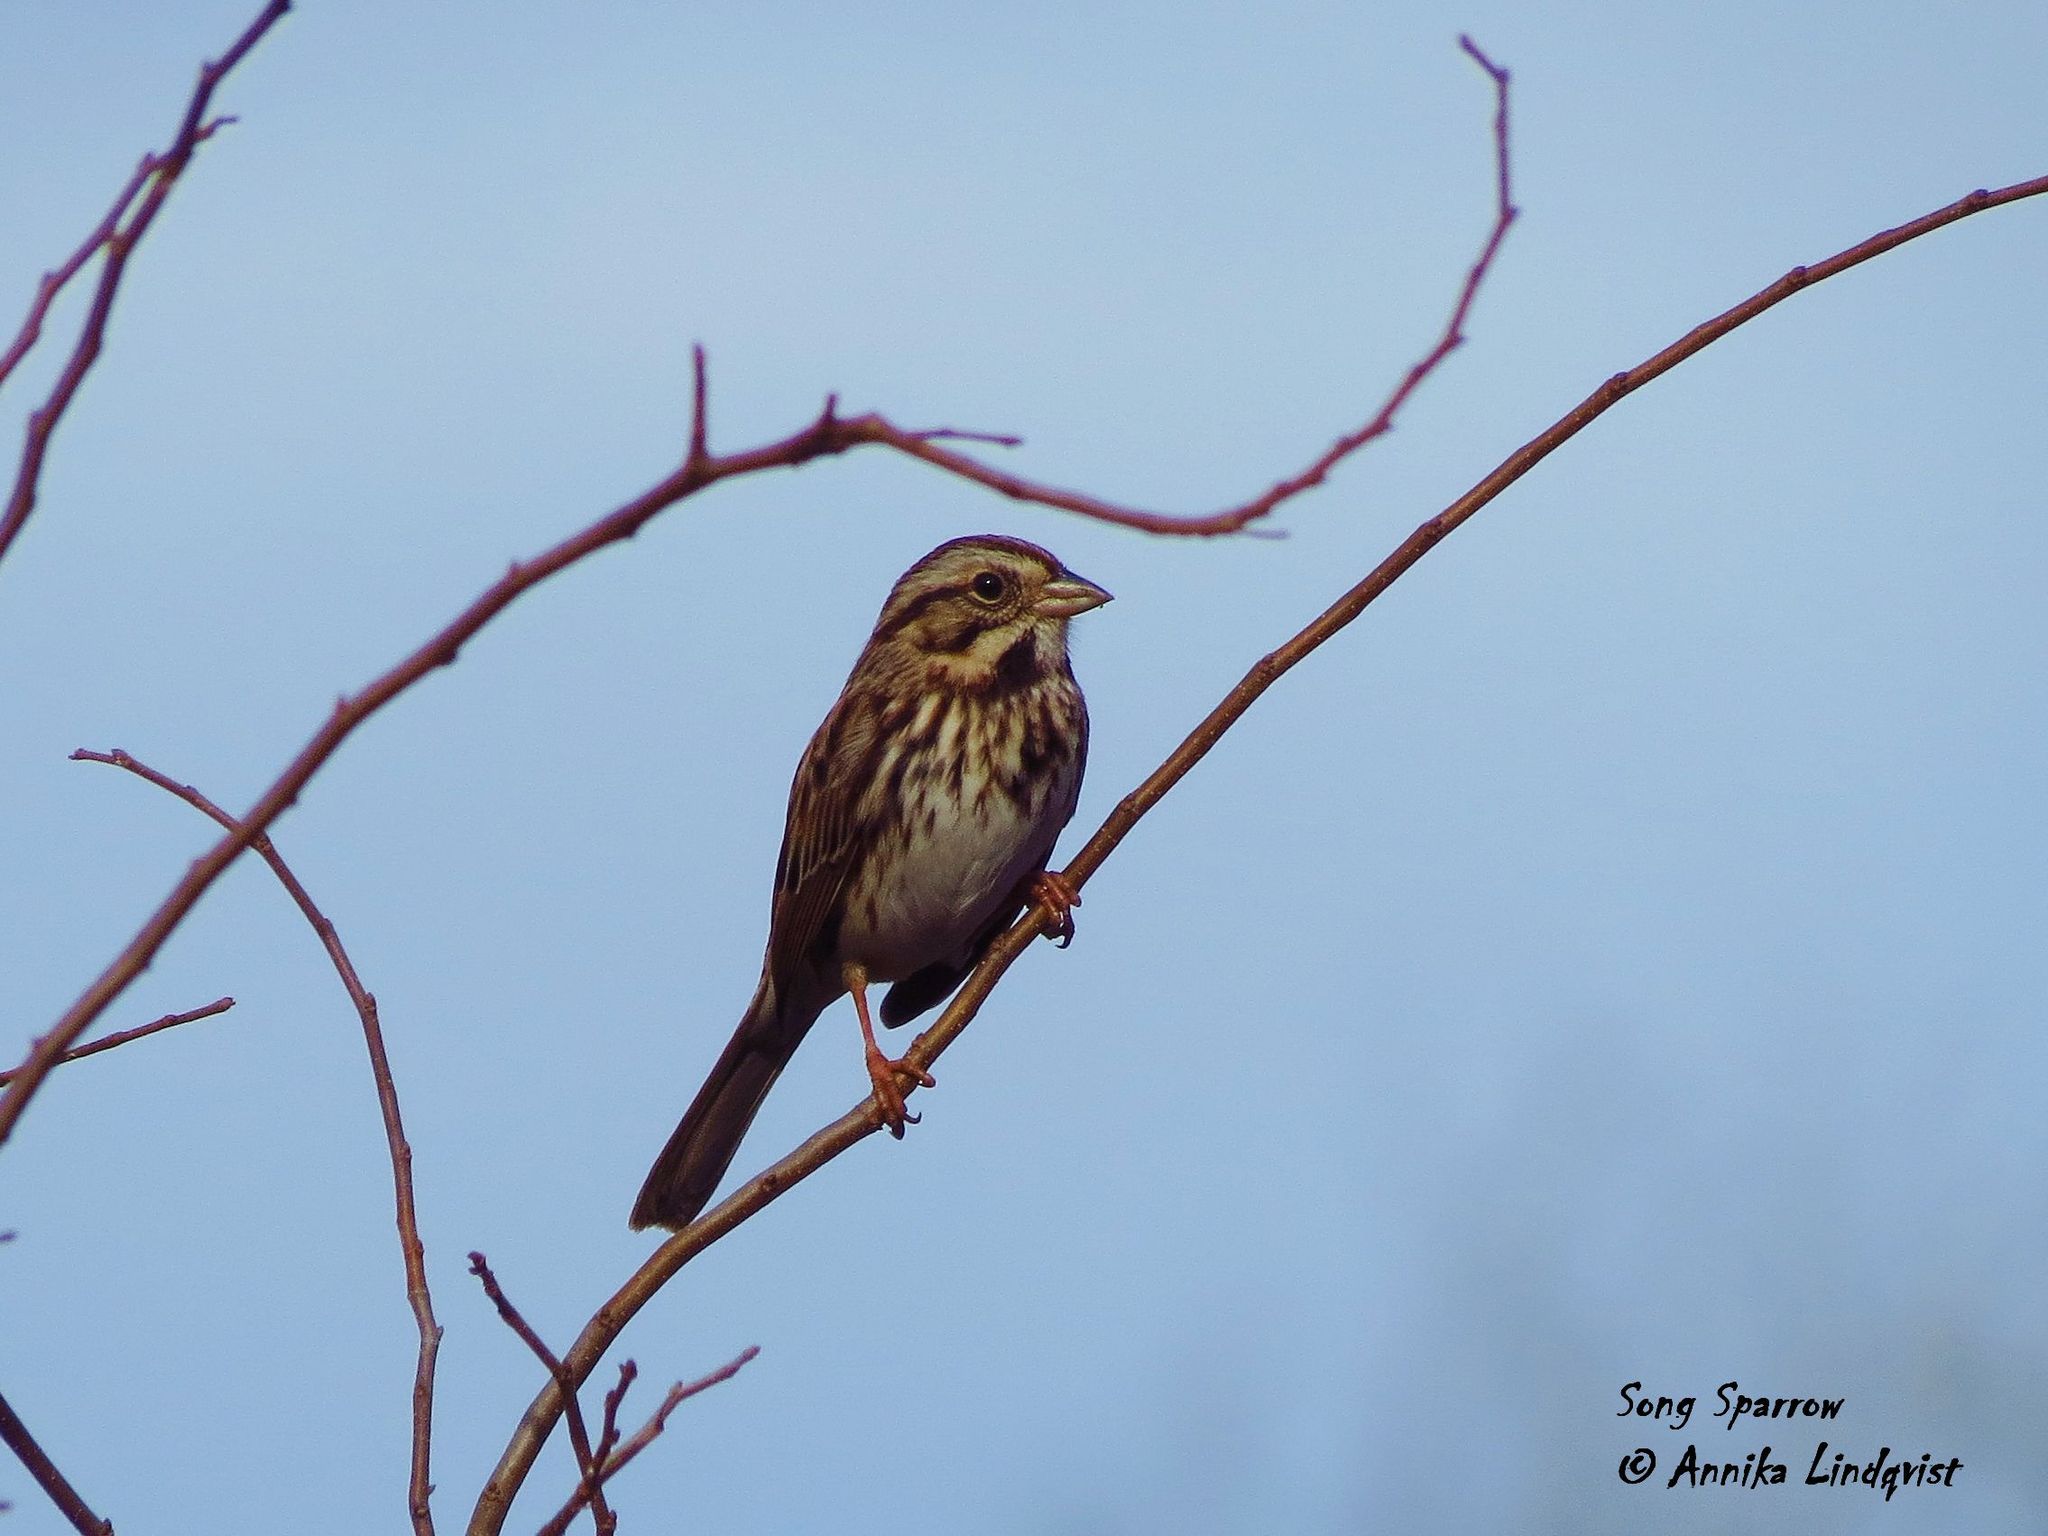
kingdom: Animalia
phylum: Chordata
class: Aves
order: Passeriformes
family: Passerellidae
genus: Melospiza
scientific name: Melospiza melodia
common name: Song sparrow
